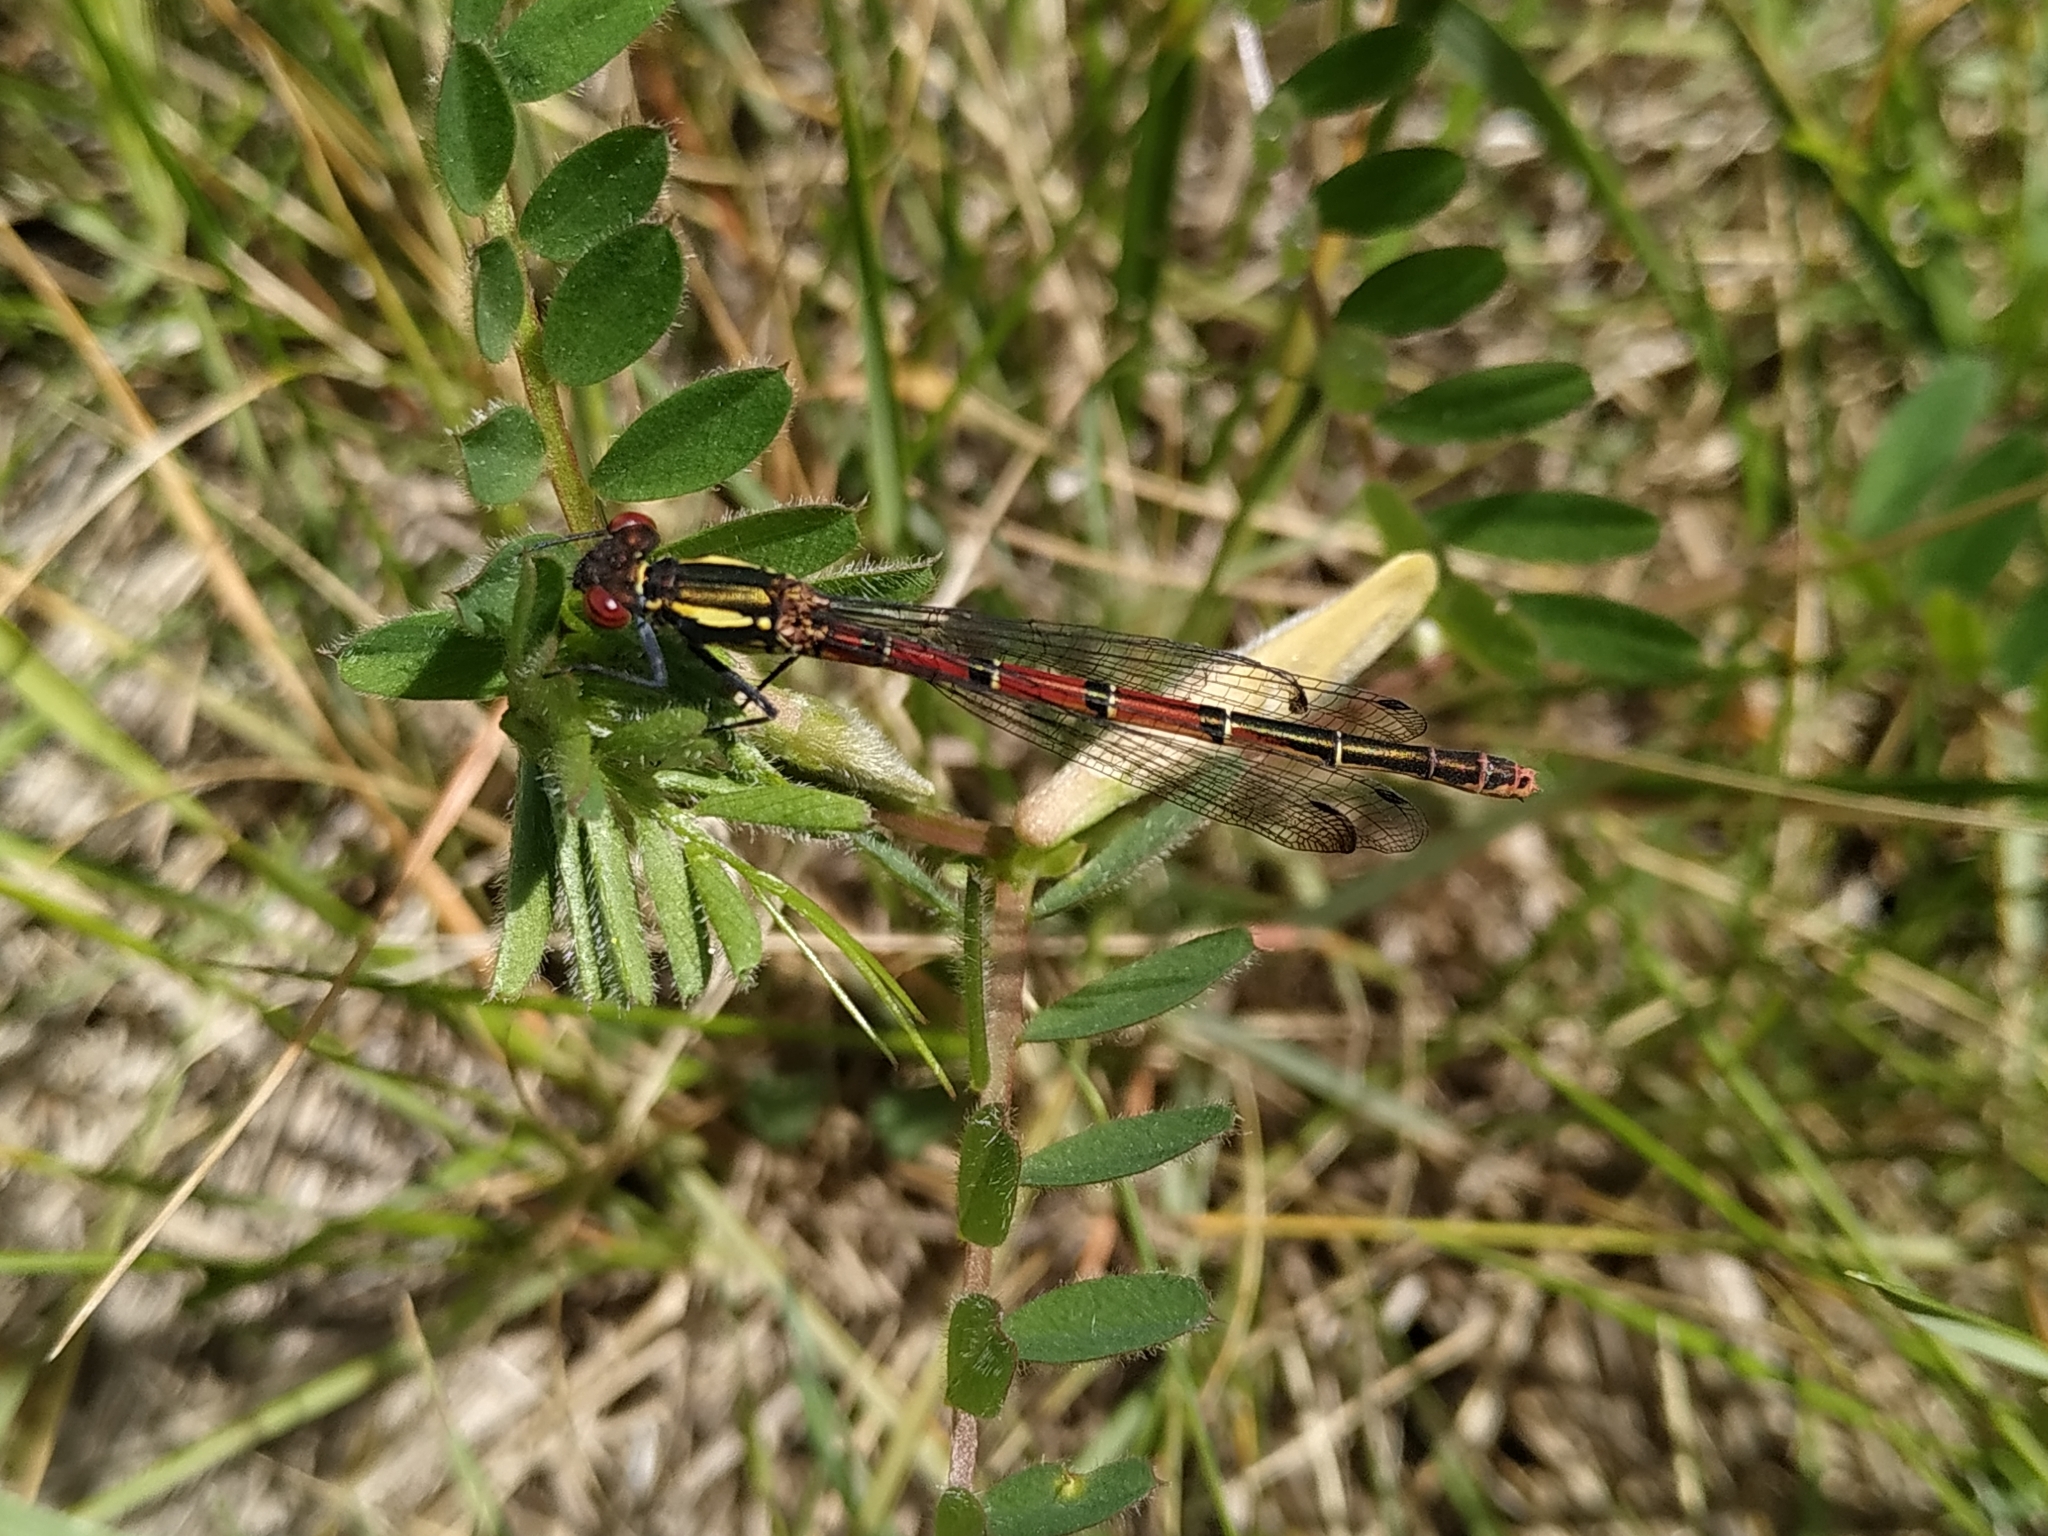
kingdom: Animalia
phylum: Arthropoda
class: Insecta
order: Odonata
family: Coenagrionidae
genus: Pyrrhosoma
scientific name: Pyrrhosoma nymphula
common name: Large red damsel
